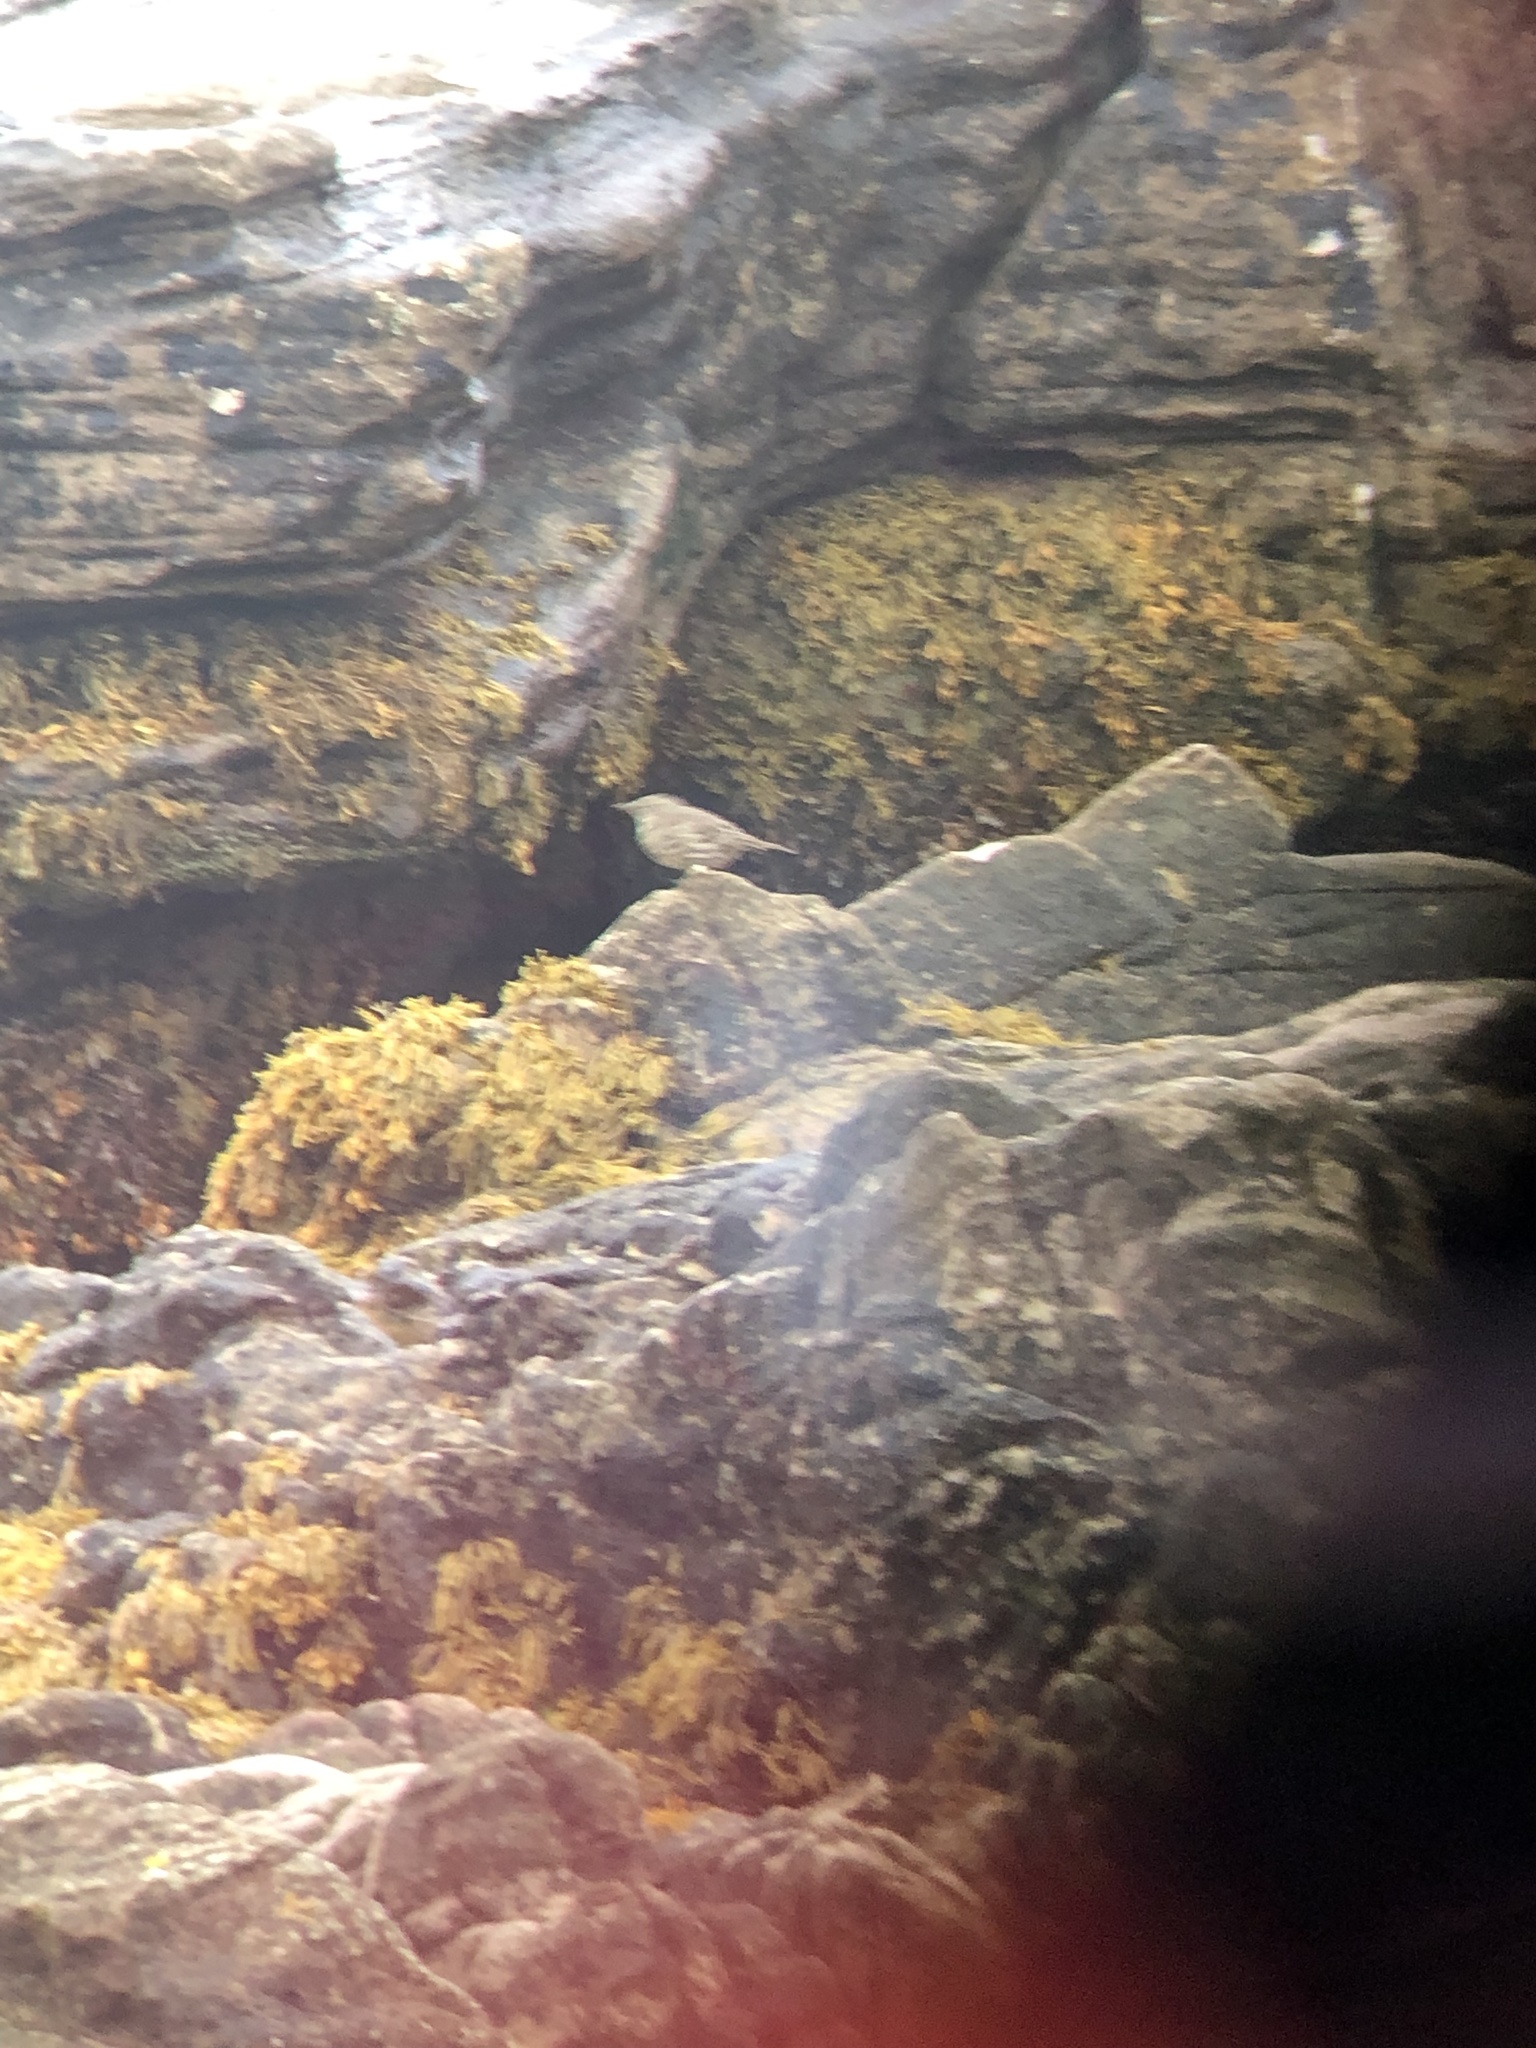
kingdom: Animalia
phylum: Chordata
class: Aves
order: Passeriformes
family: Motacillidae
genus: Anthus
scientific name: Anthus petrosus
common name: Eurasian rock pipit
